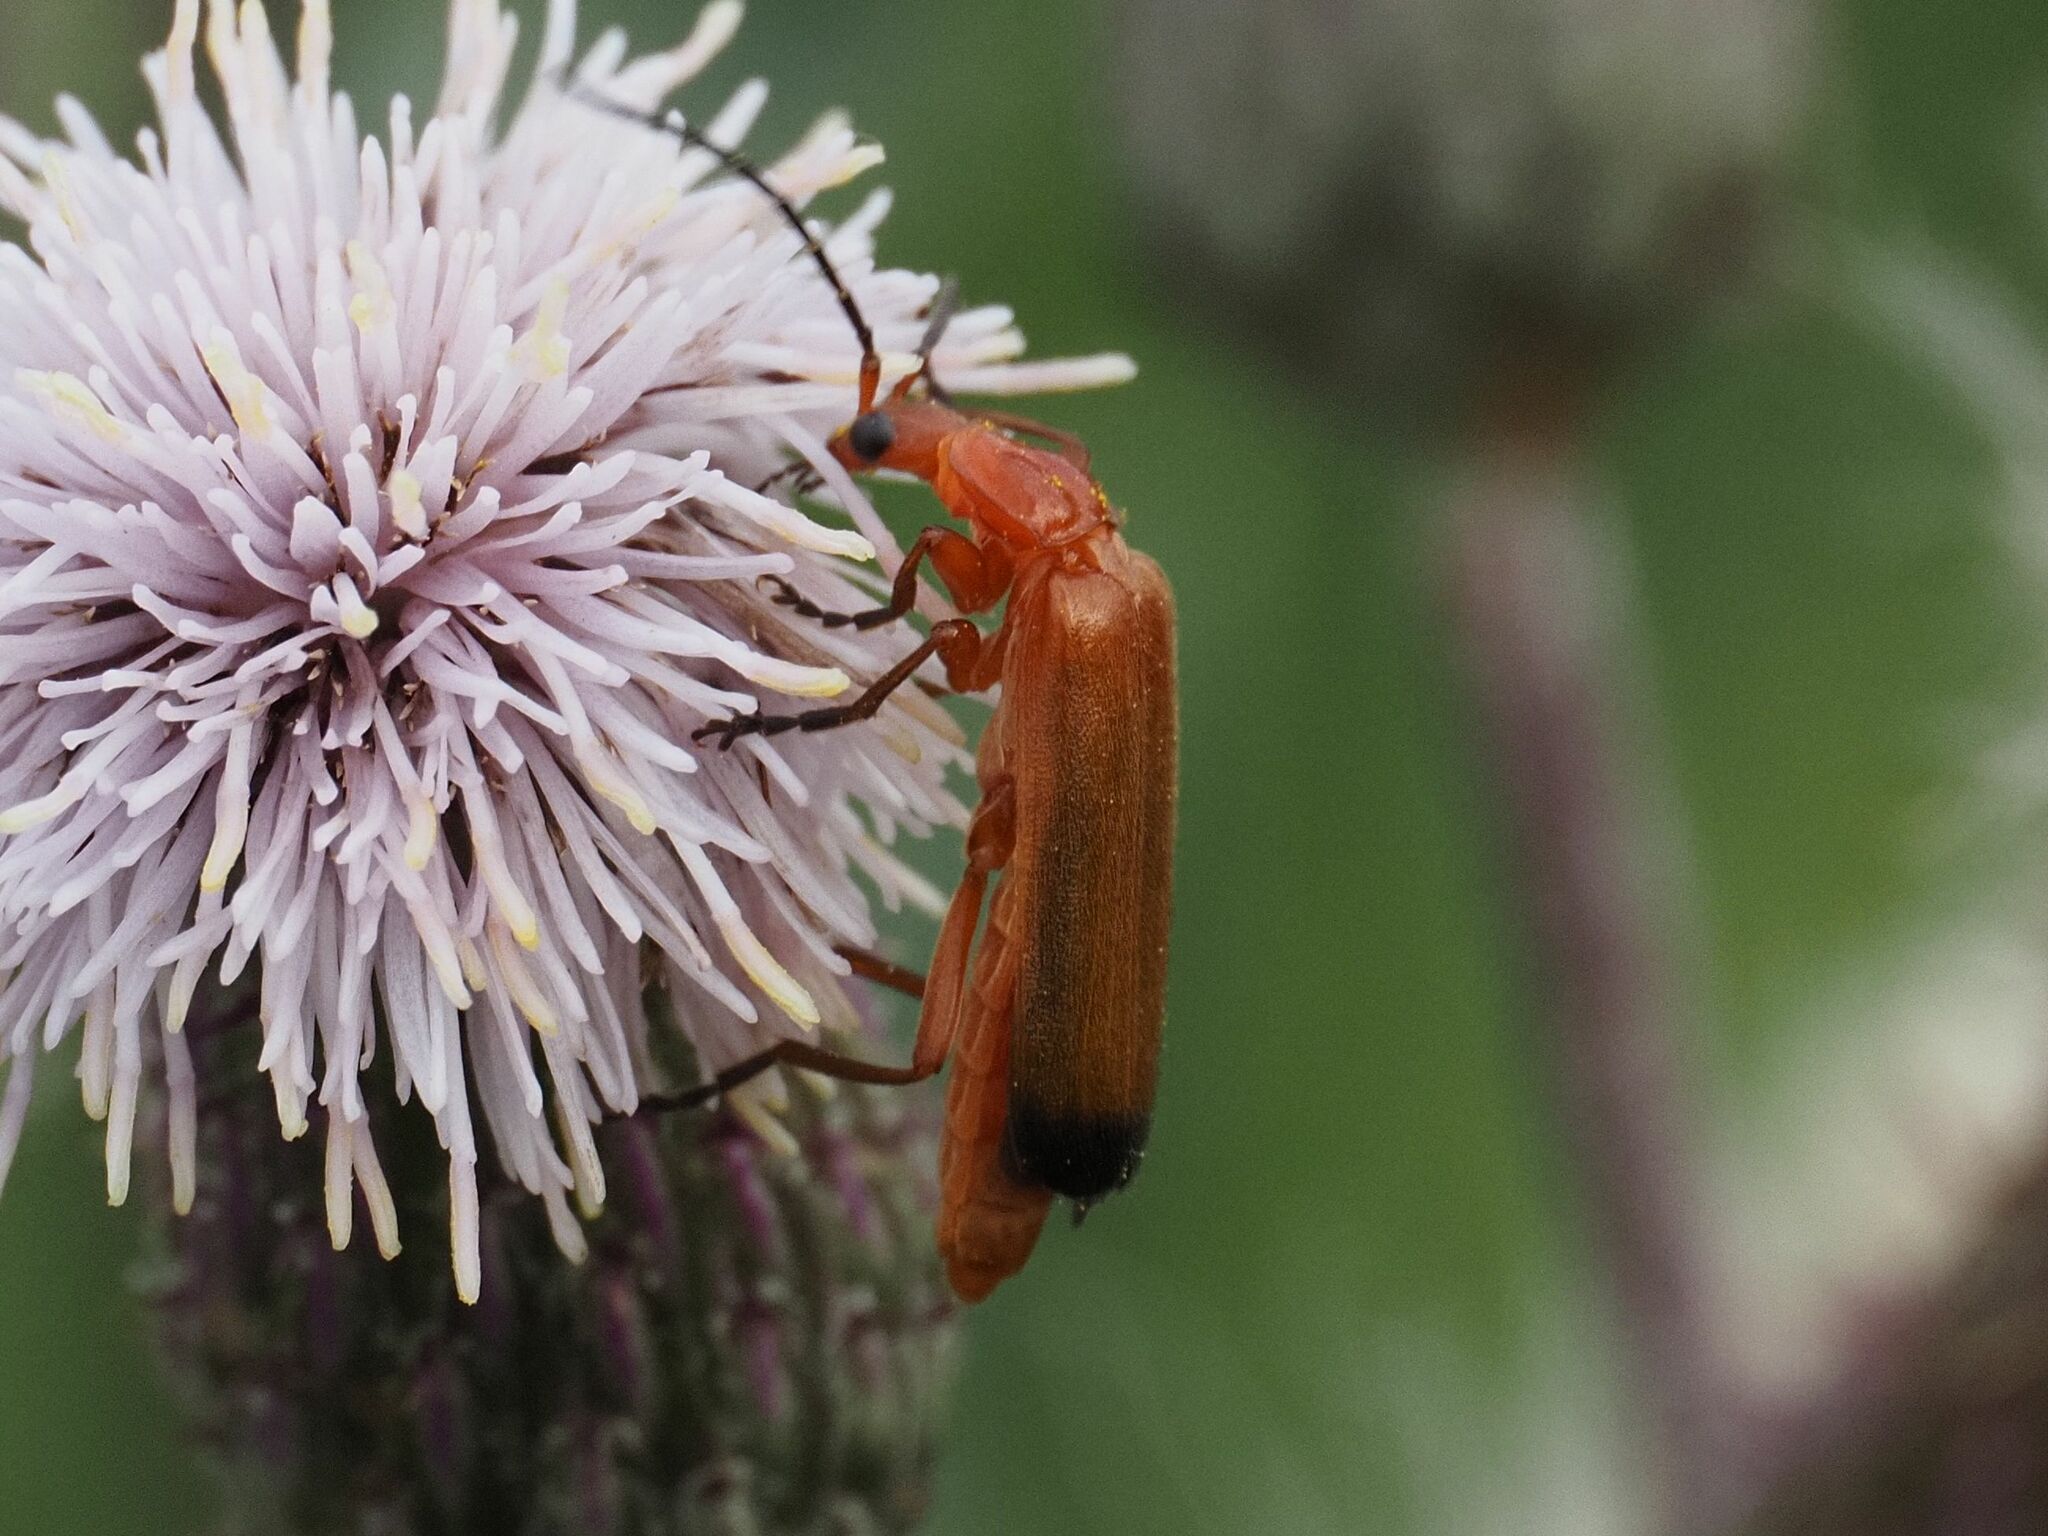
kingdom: Animalia
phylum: Arthropoda
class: Insecta
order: Coleoptera
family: Cantharidae
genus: Rhagonycha
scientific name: Rhagonycha fulva
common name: Common red soldier beetle
